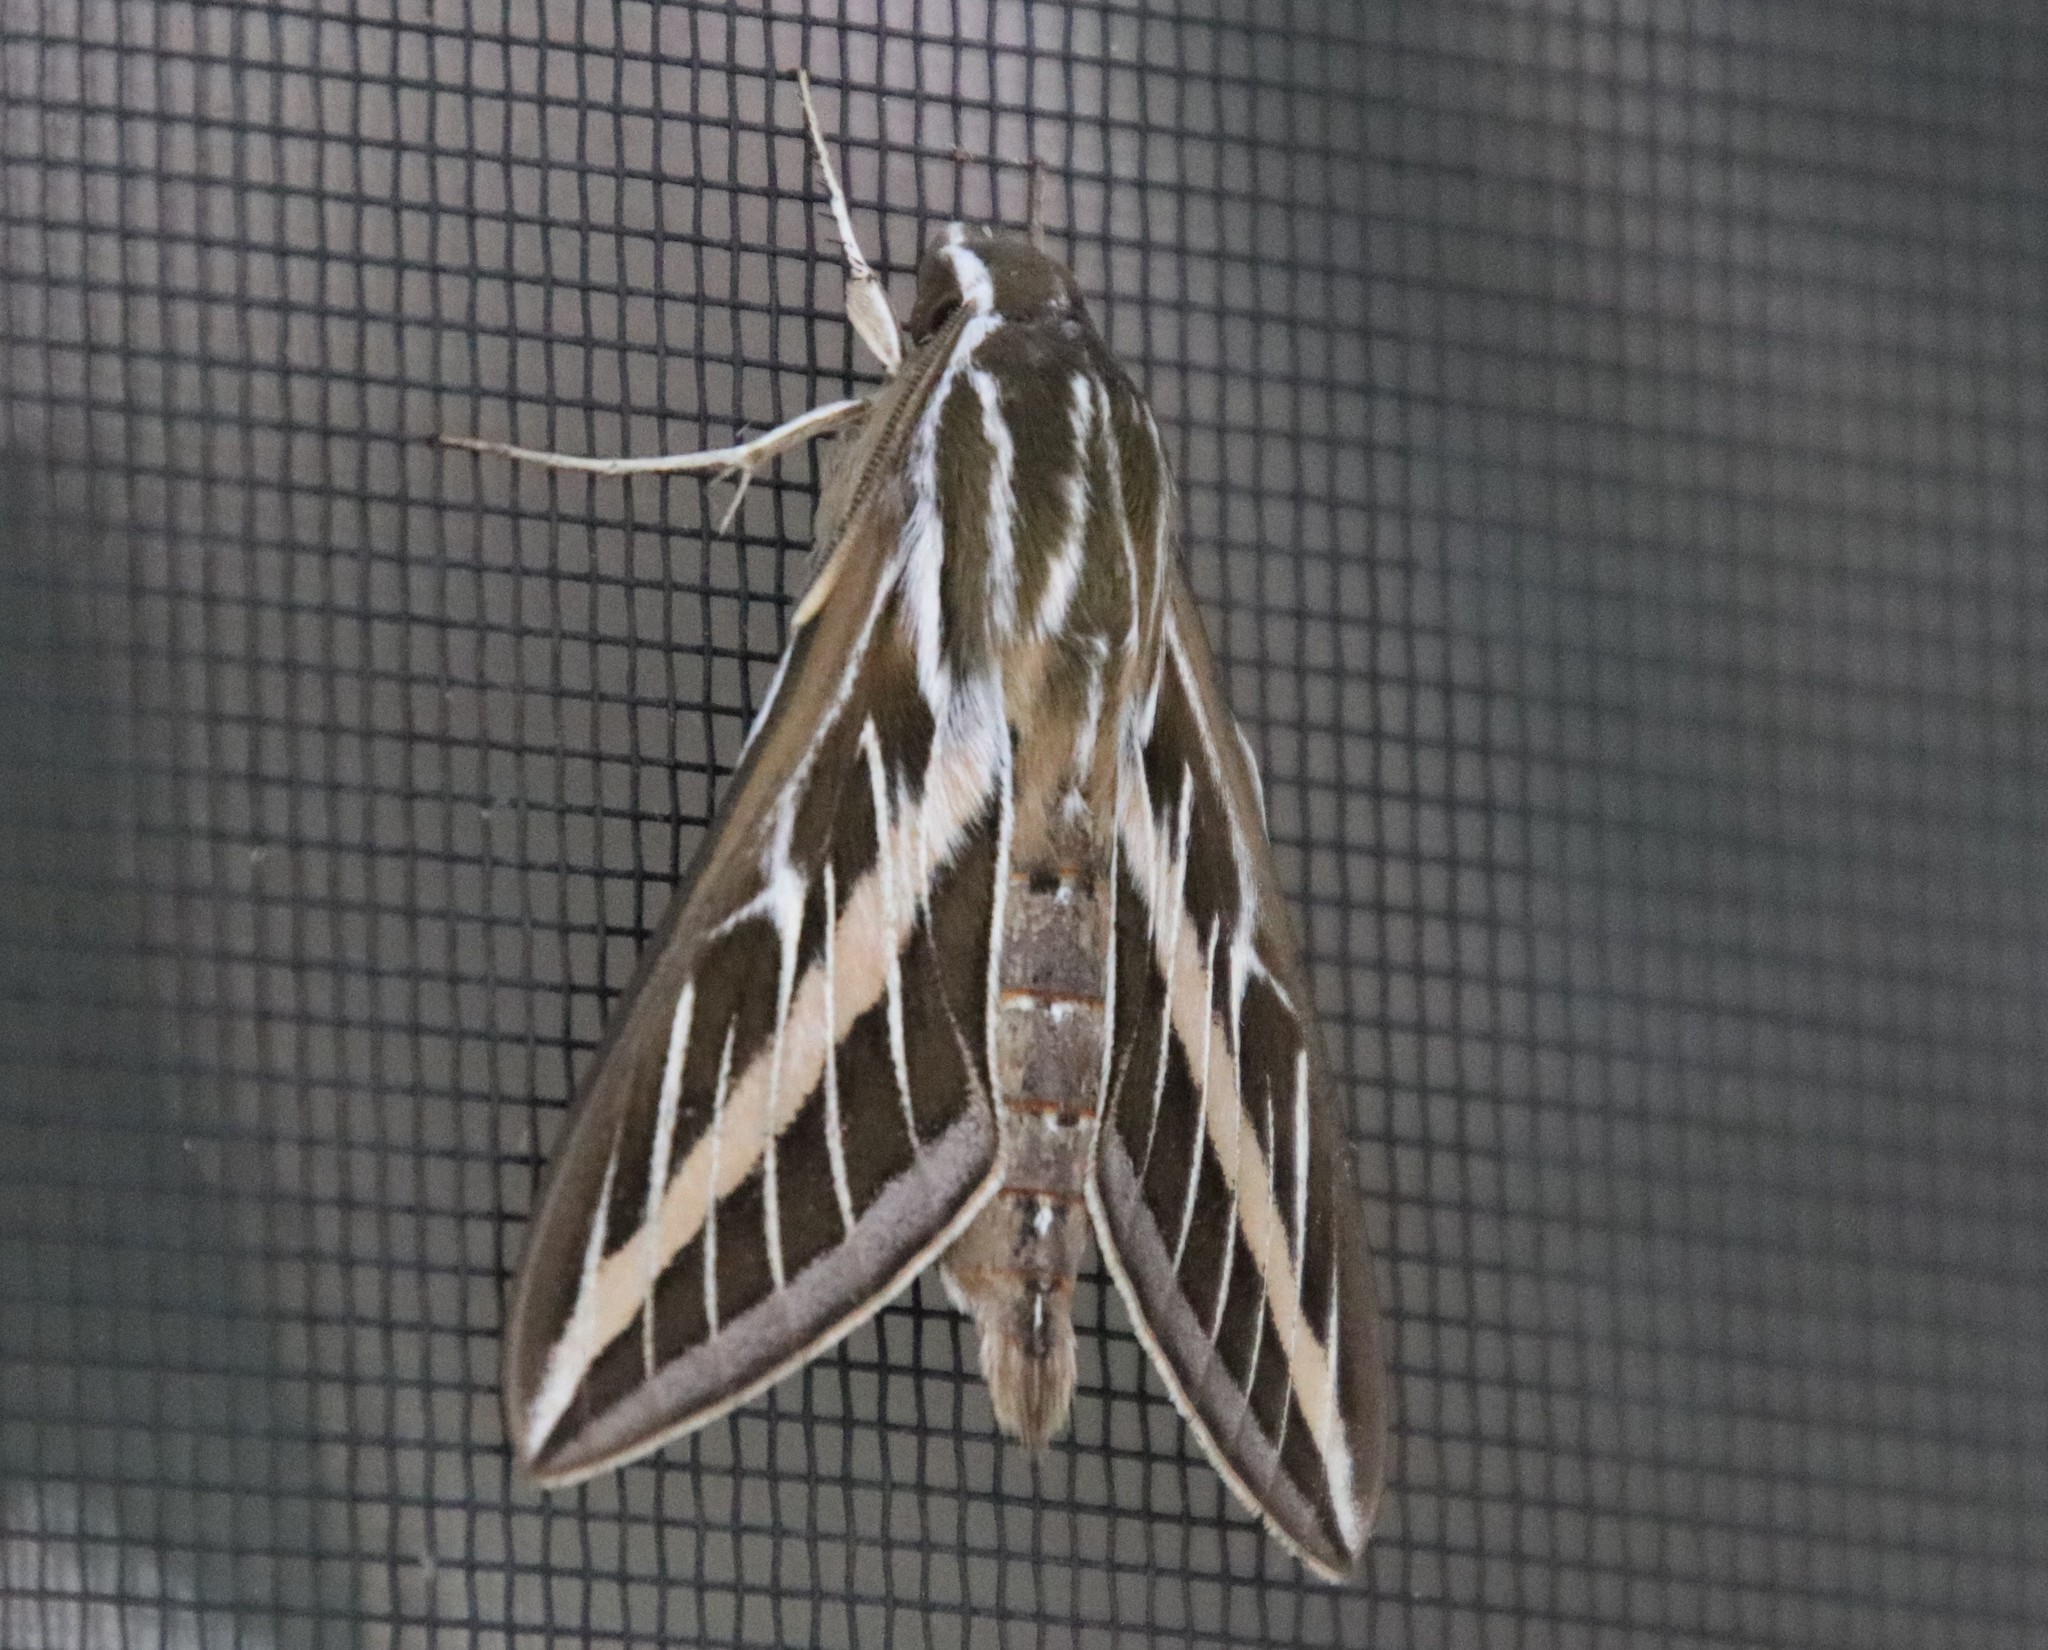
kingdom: Animalia
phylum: Arthropoda
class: Insecta
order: Lepidoptera
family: Sphingidae
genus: Hyles
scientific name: Hyles lineata
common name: White-lined sphinx
